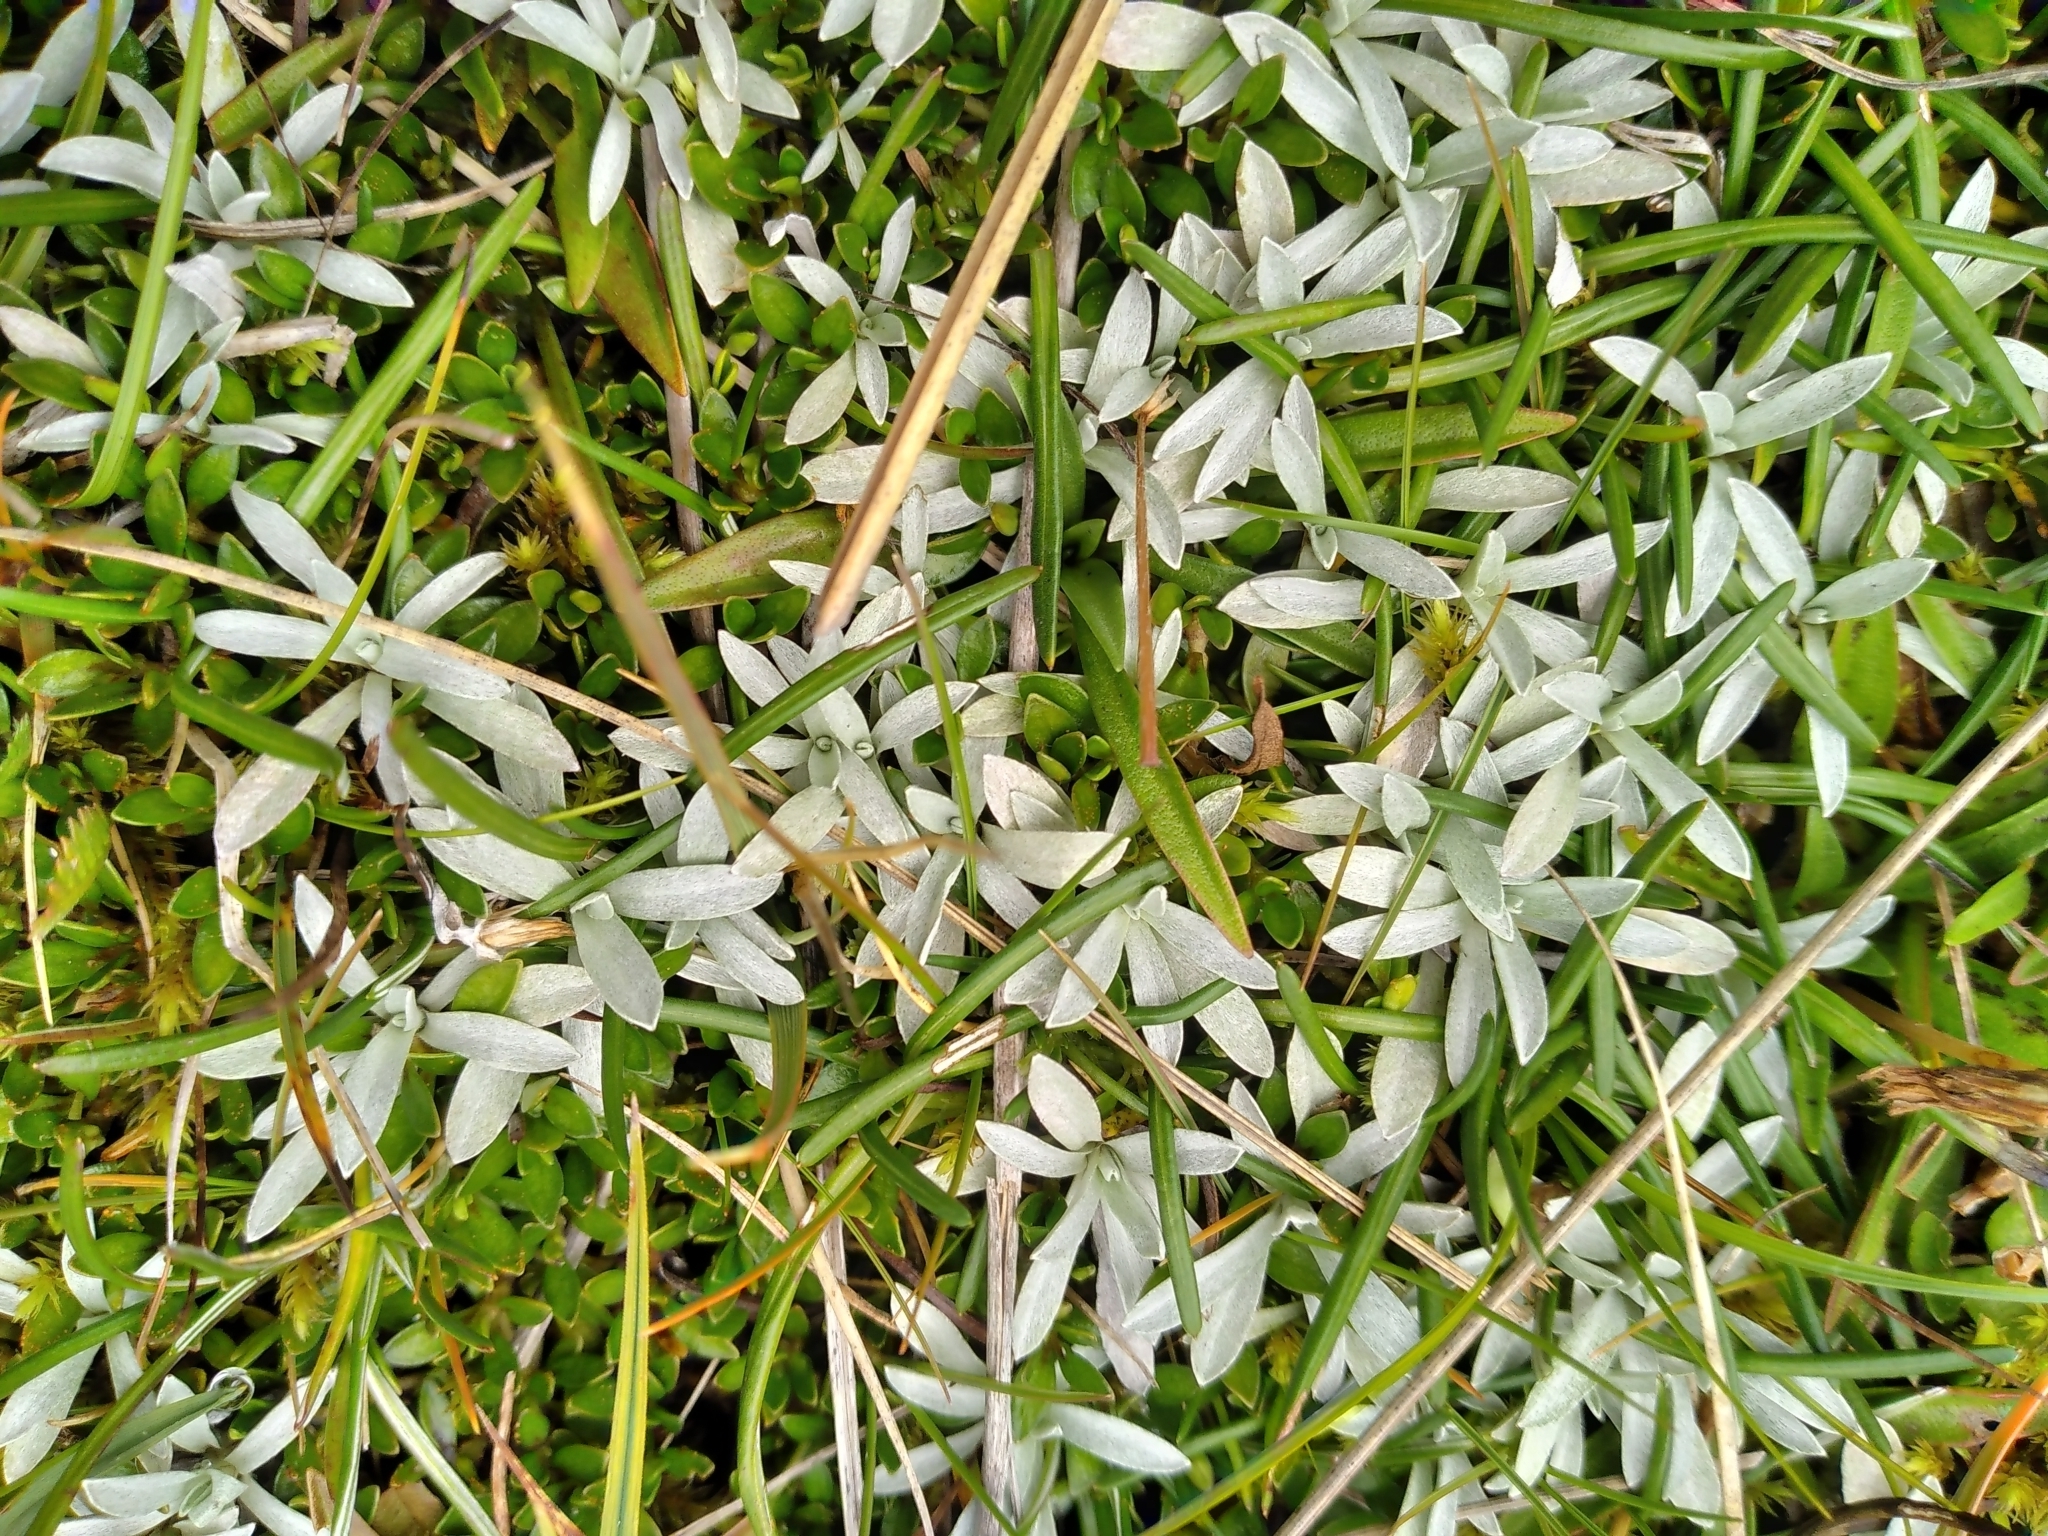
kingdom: Plantae
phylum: Tracheophyta
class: Magnoliopsida
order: Asterales
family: Asteraceae
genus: Euchiton
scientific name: Euchiton traversii
